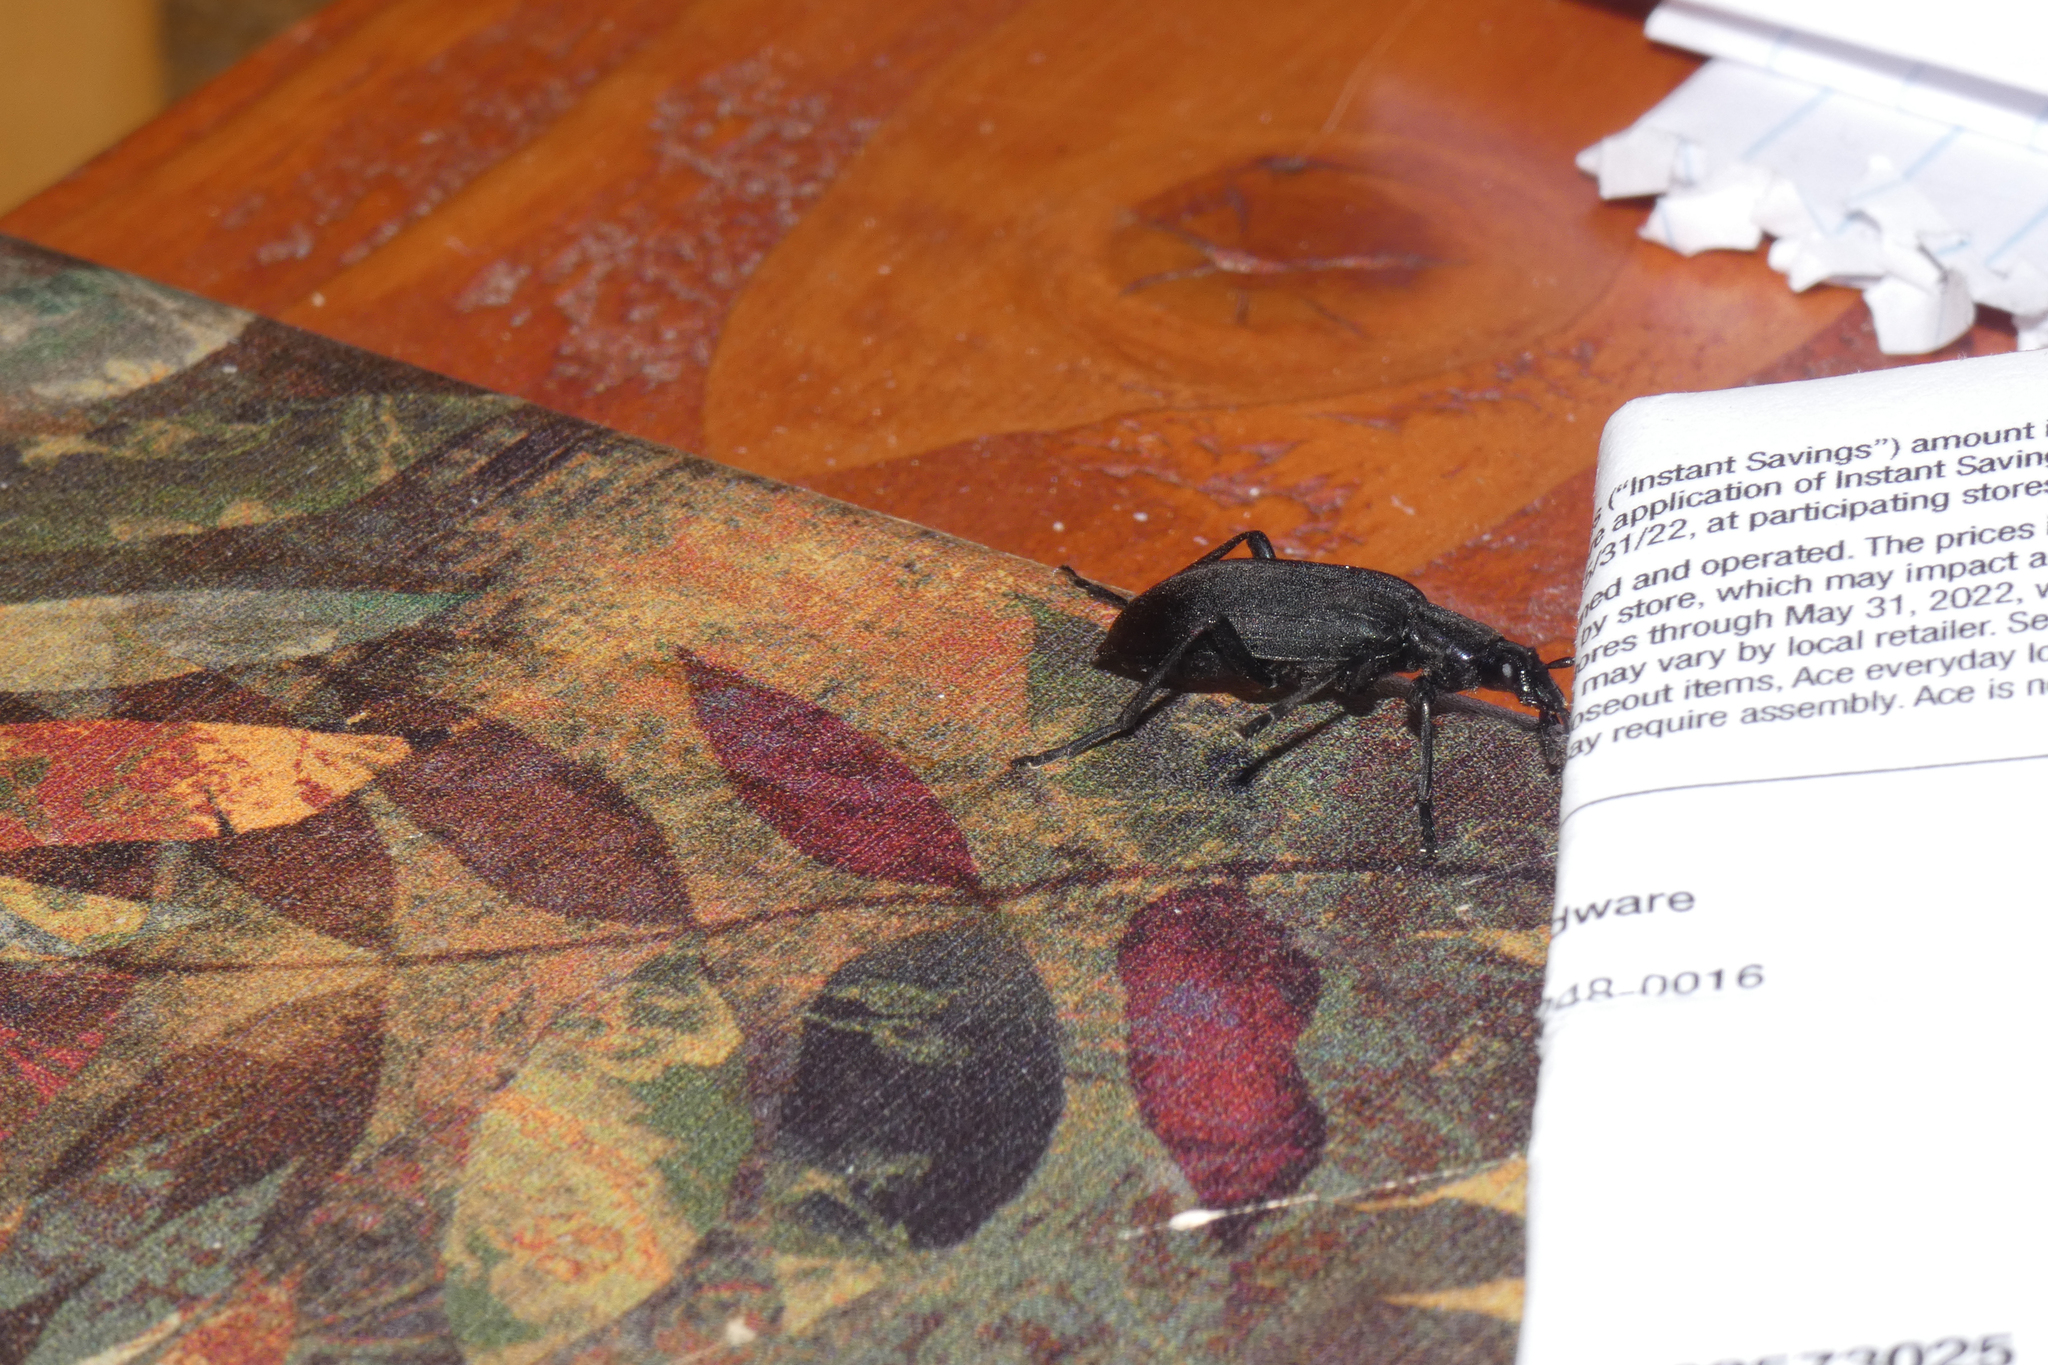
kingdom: Animalia
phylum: Arthropoda
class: Insecta
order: Coleoptera
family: Oedemeridae
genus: Ditylus
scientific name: Ditylus gracilis
